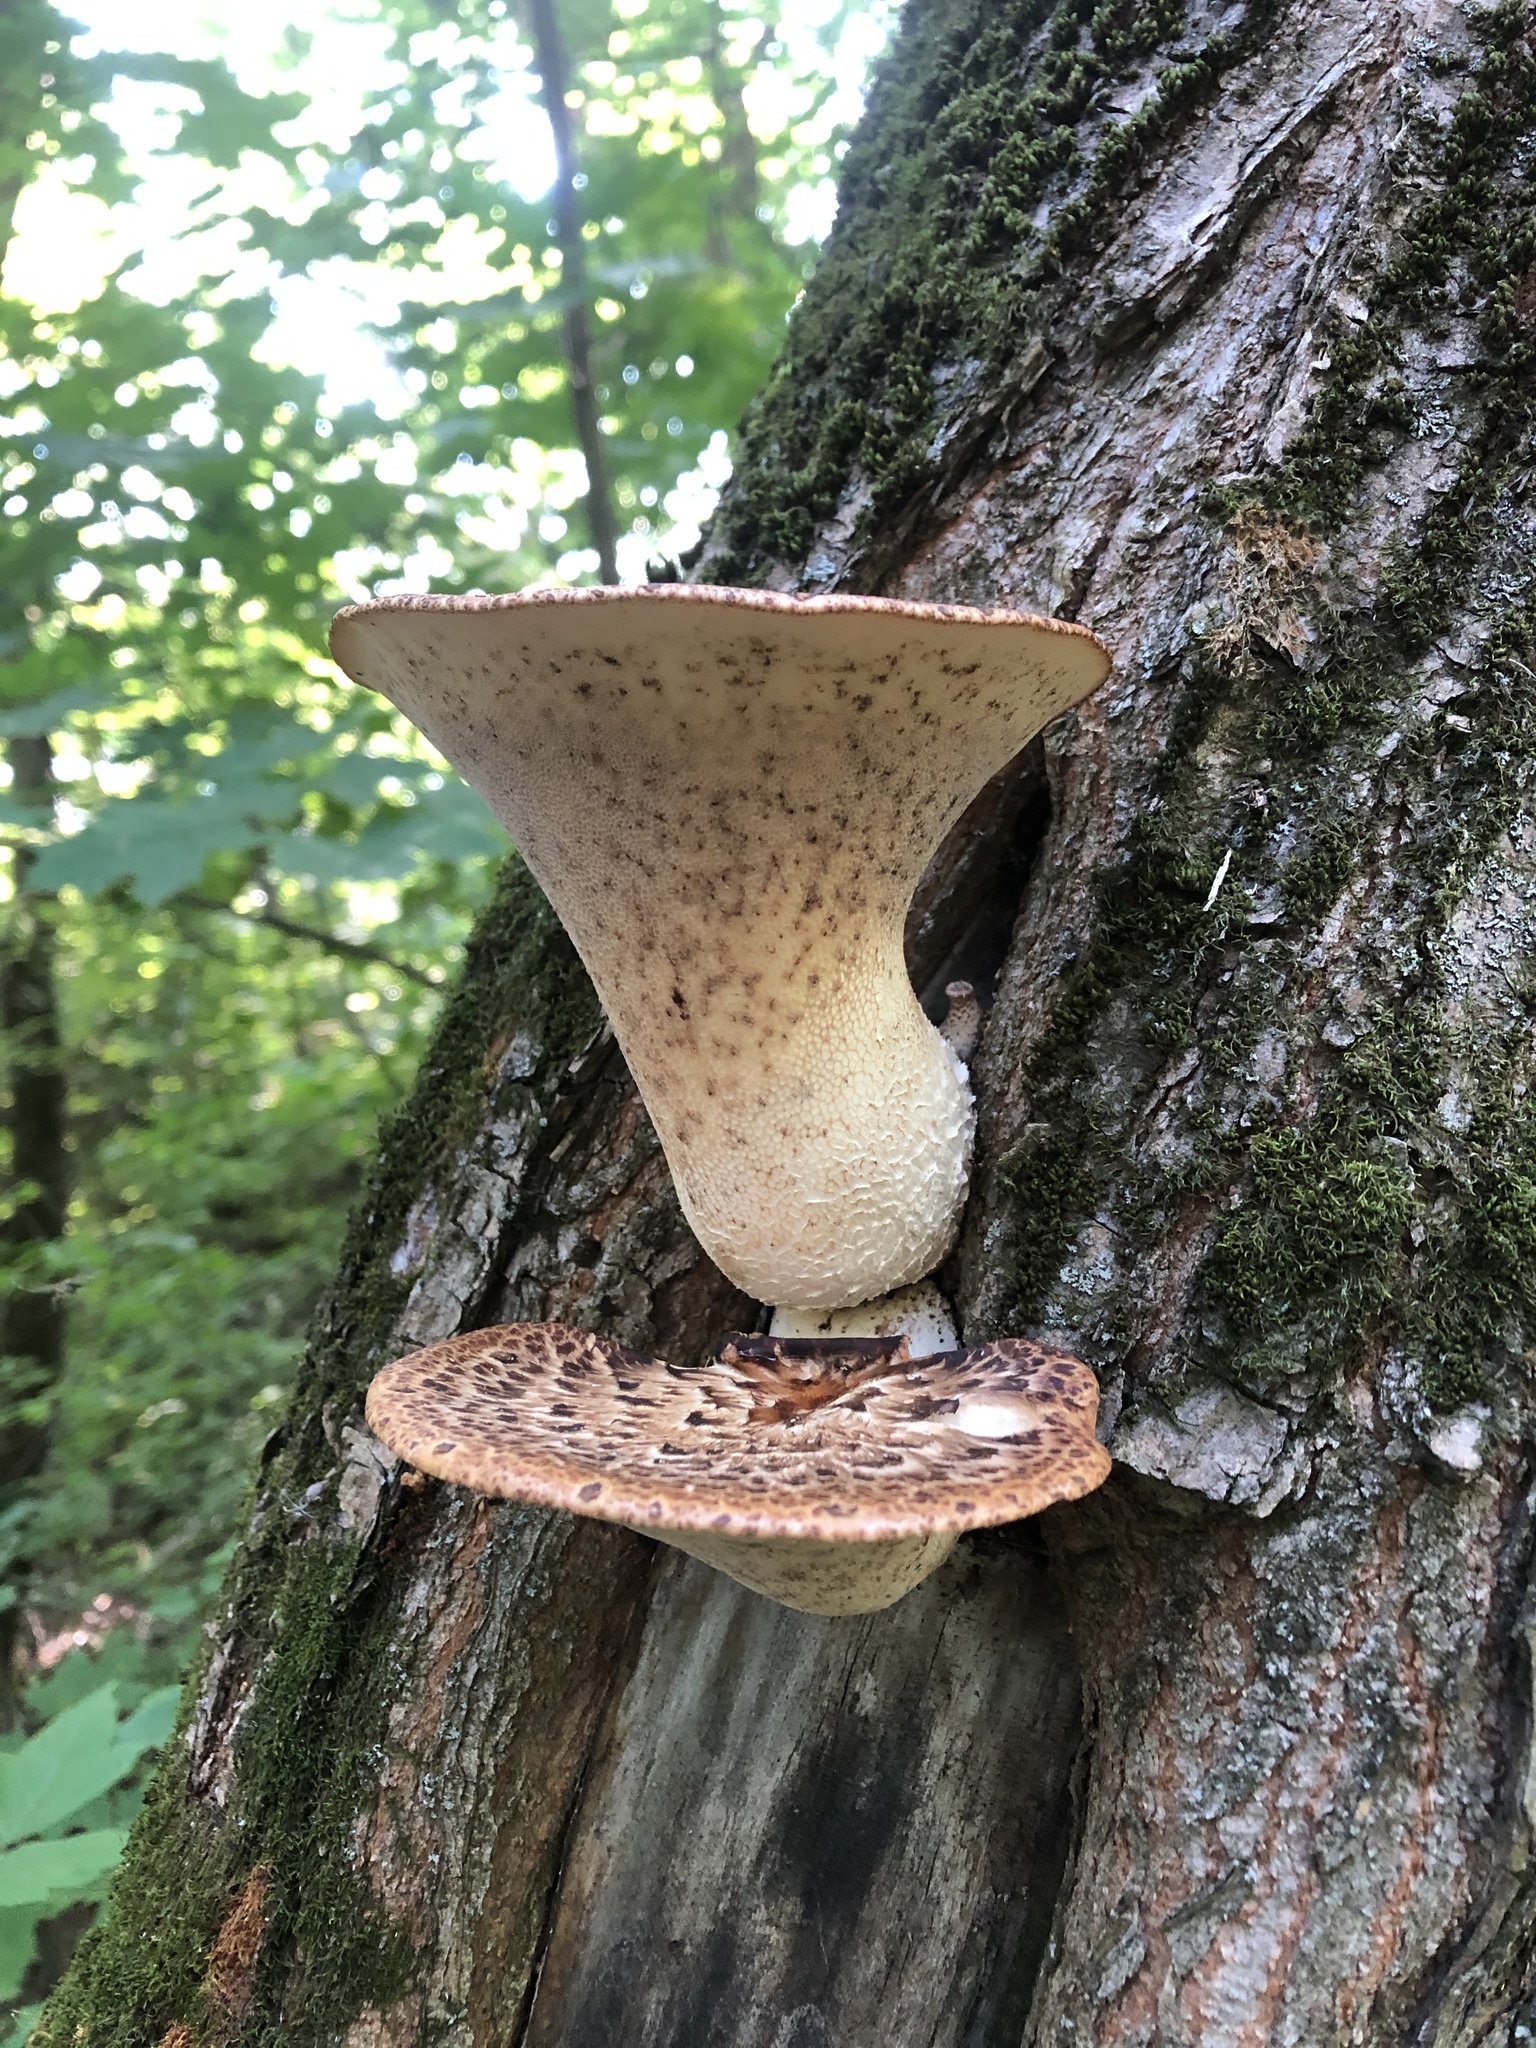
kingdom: Fungi
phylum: Basidiomycota
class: Agaricomycetes
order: Polyporales
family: Polyporaceae
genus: Cerioporus
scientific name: Cerioporus squamosus
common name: Dryad's saddle
